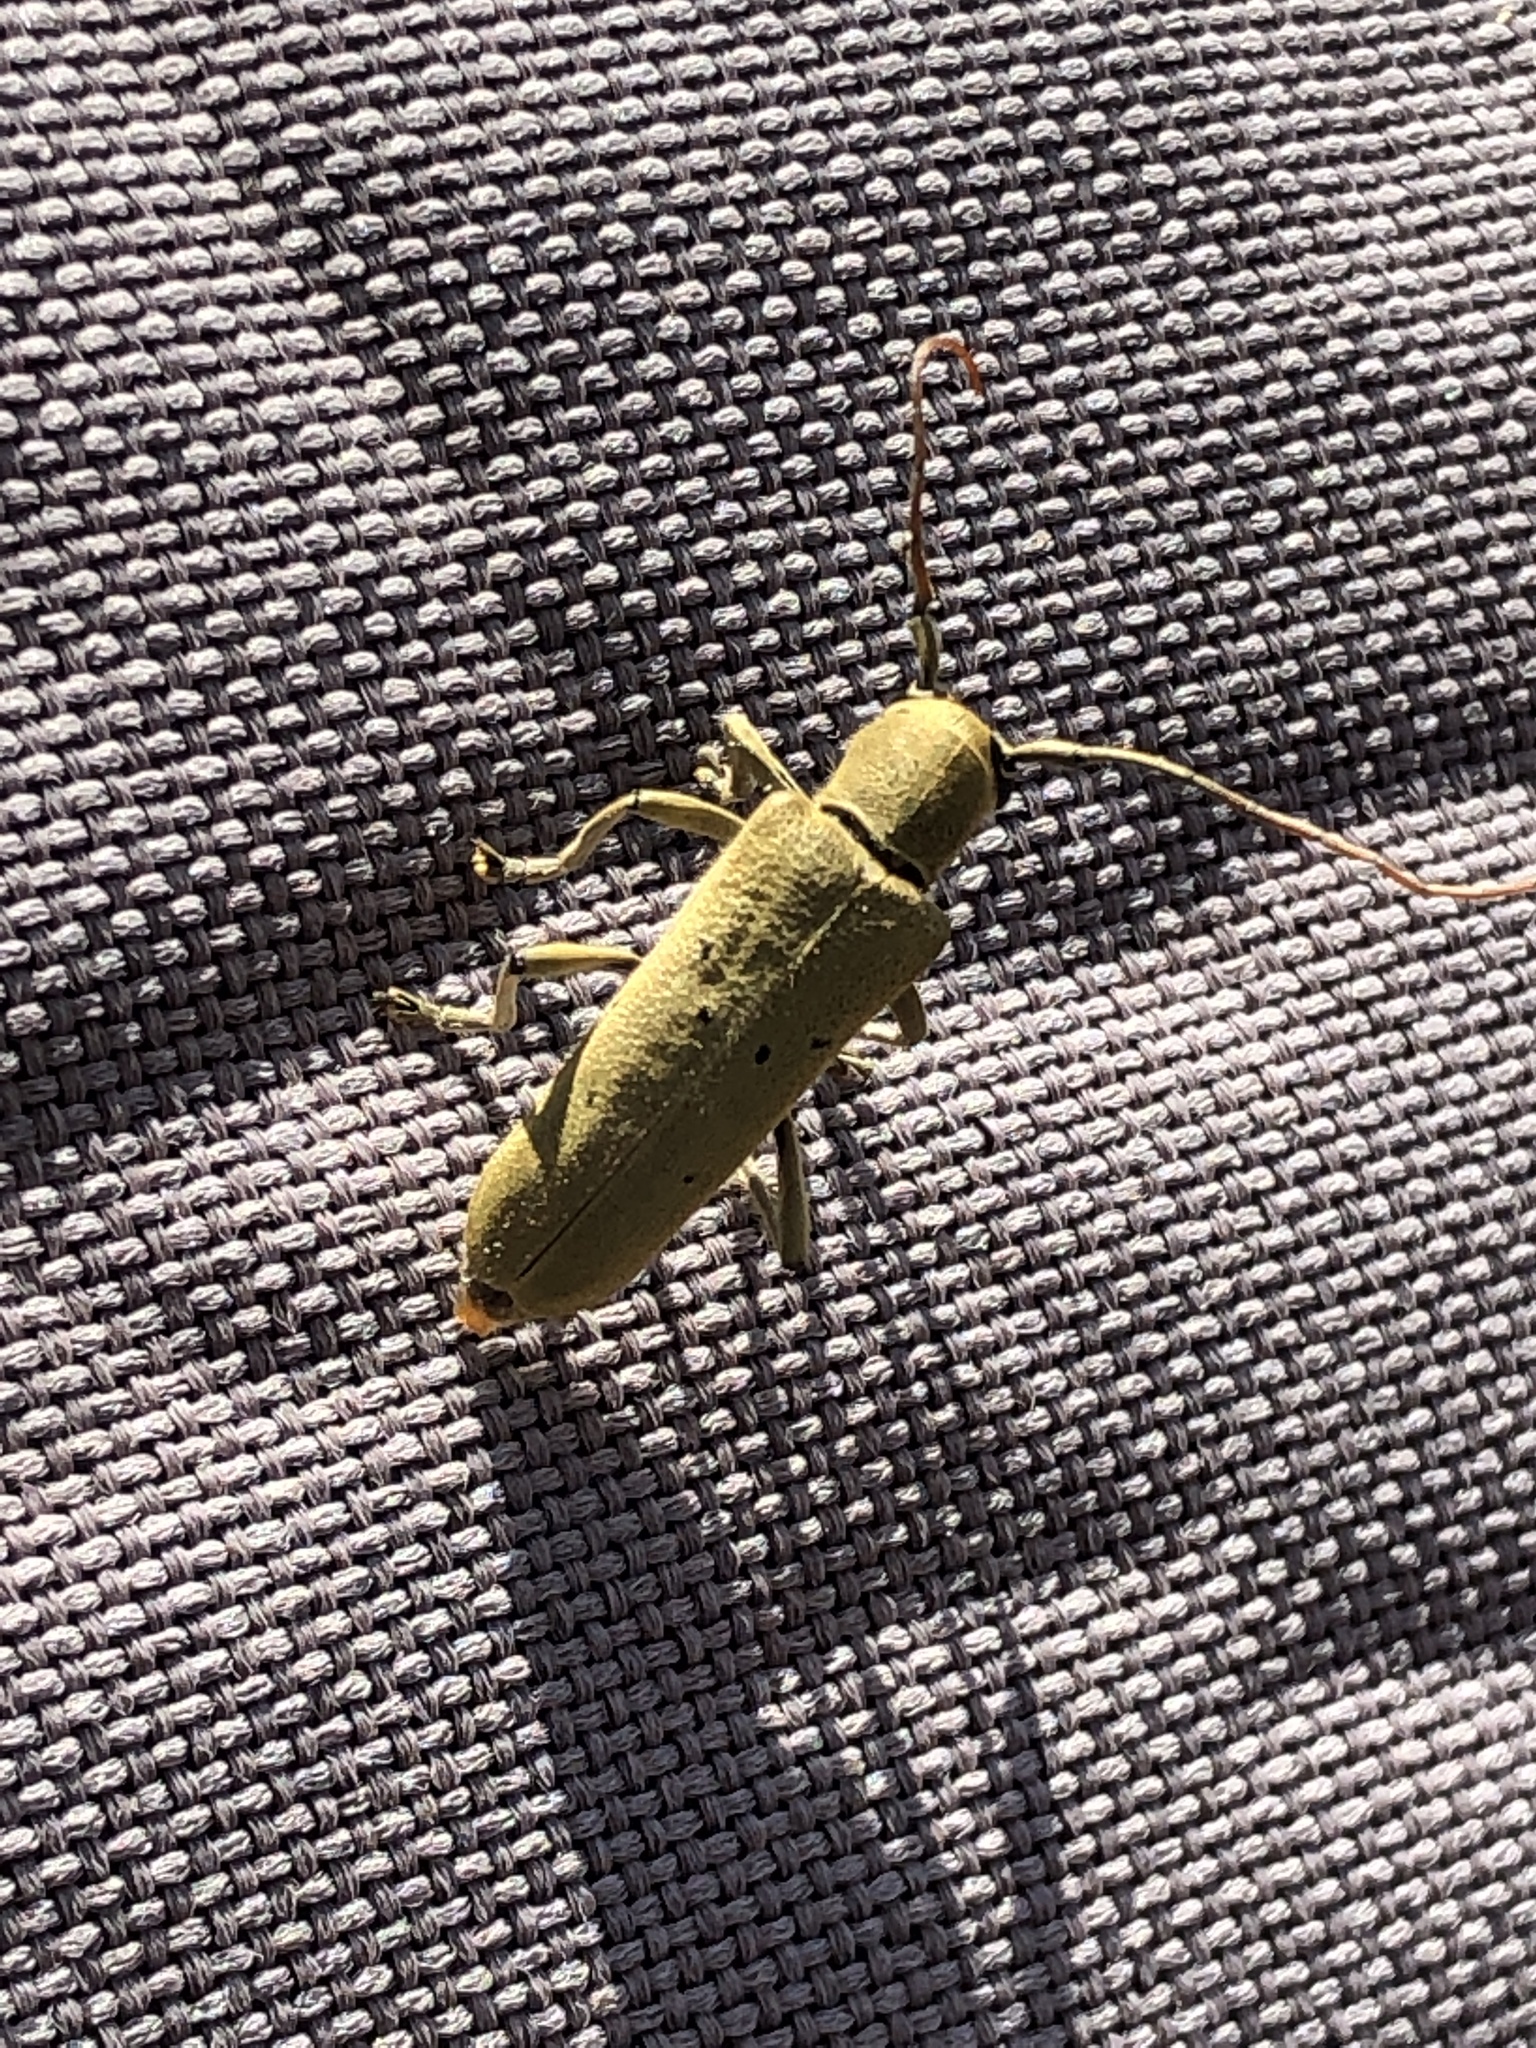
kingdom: Animalia
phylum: Arthropoda
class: Insecta
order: Coleoptera
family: Cerambycidae
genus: Saperda
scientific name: Saperda vestita
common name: Linden borer
